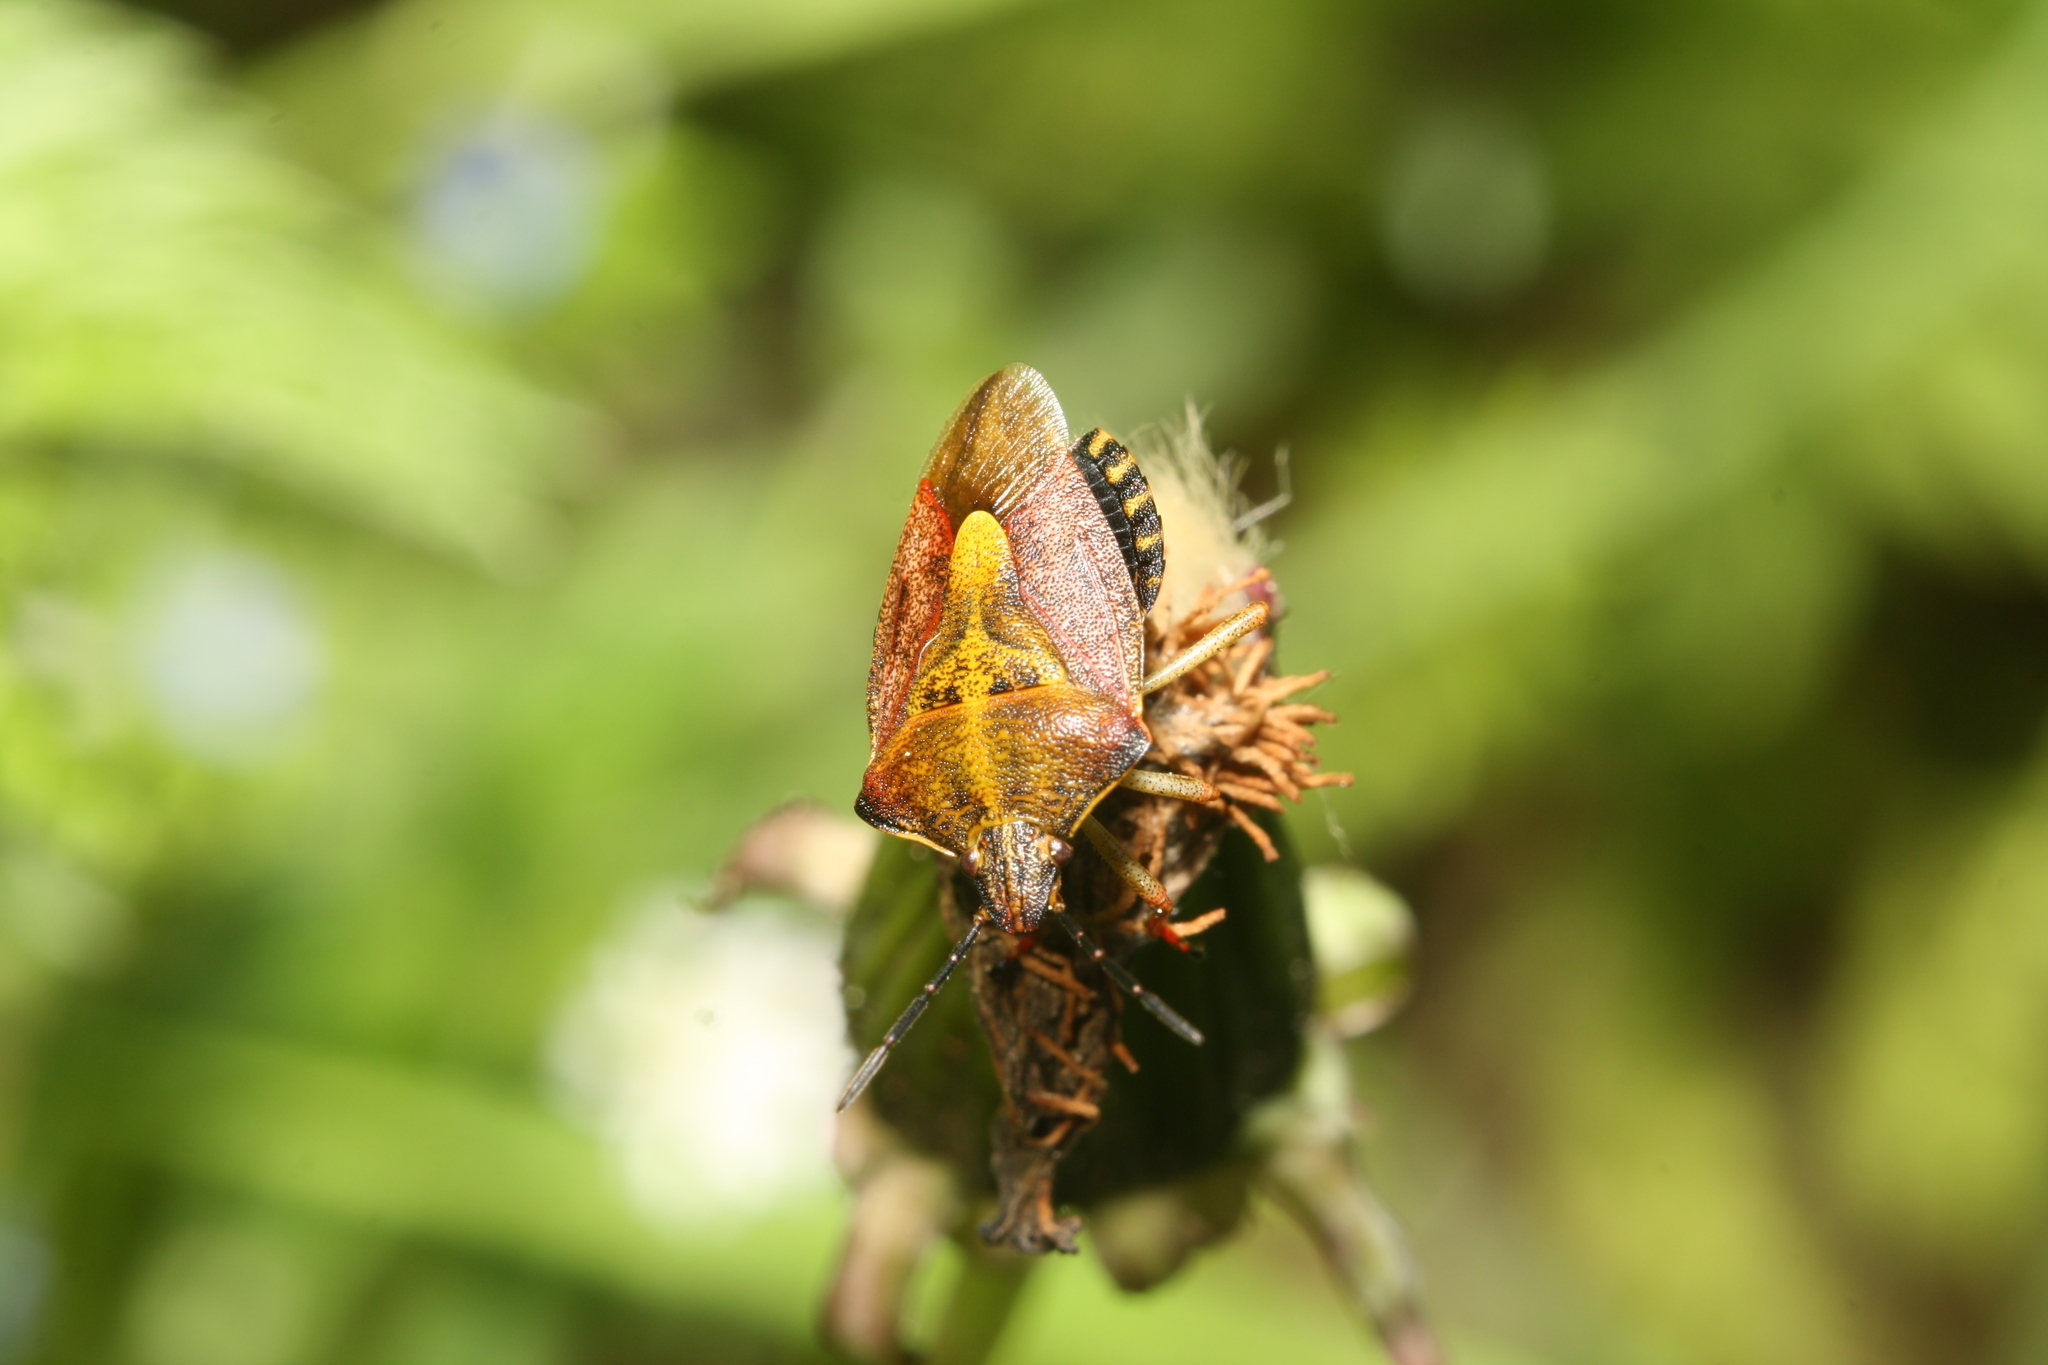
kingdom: Animalia
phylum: Arthropoda
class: Insecta
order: Hemiptera
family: Pentatomidae
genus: Carpocoris
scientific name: Carpocoris purpureipennis
